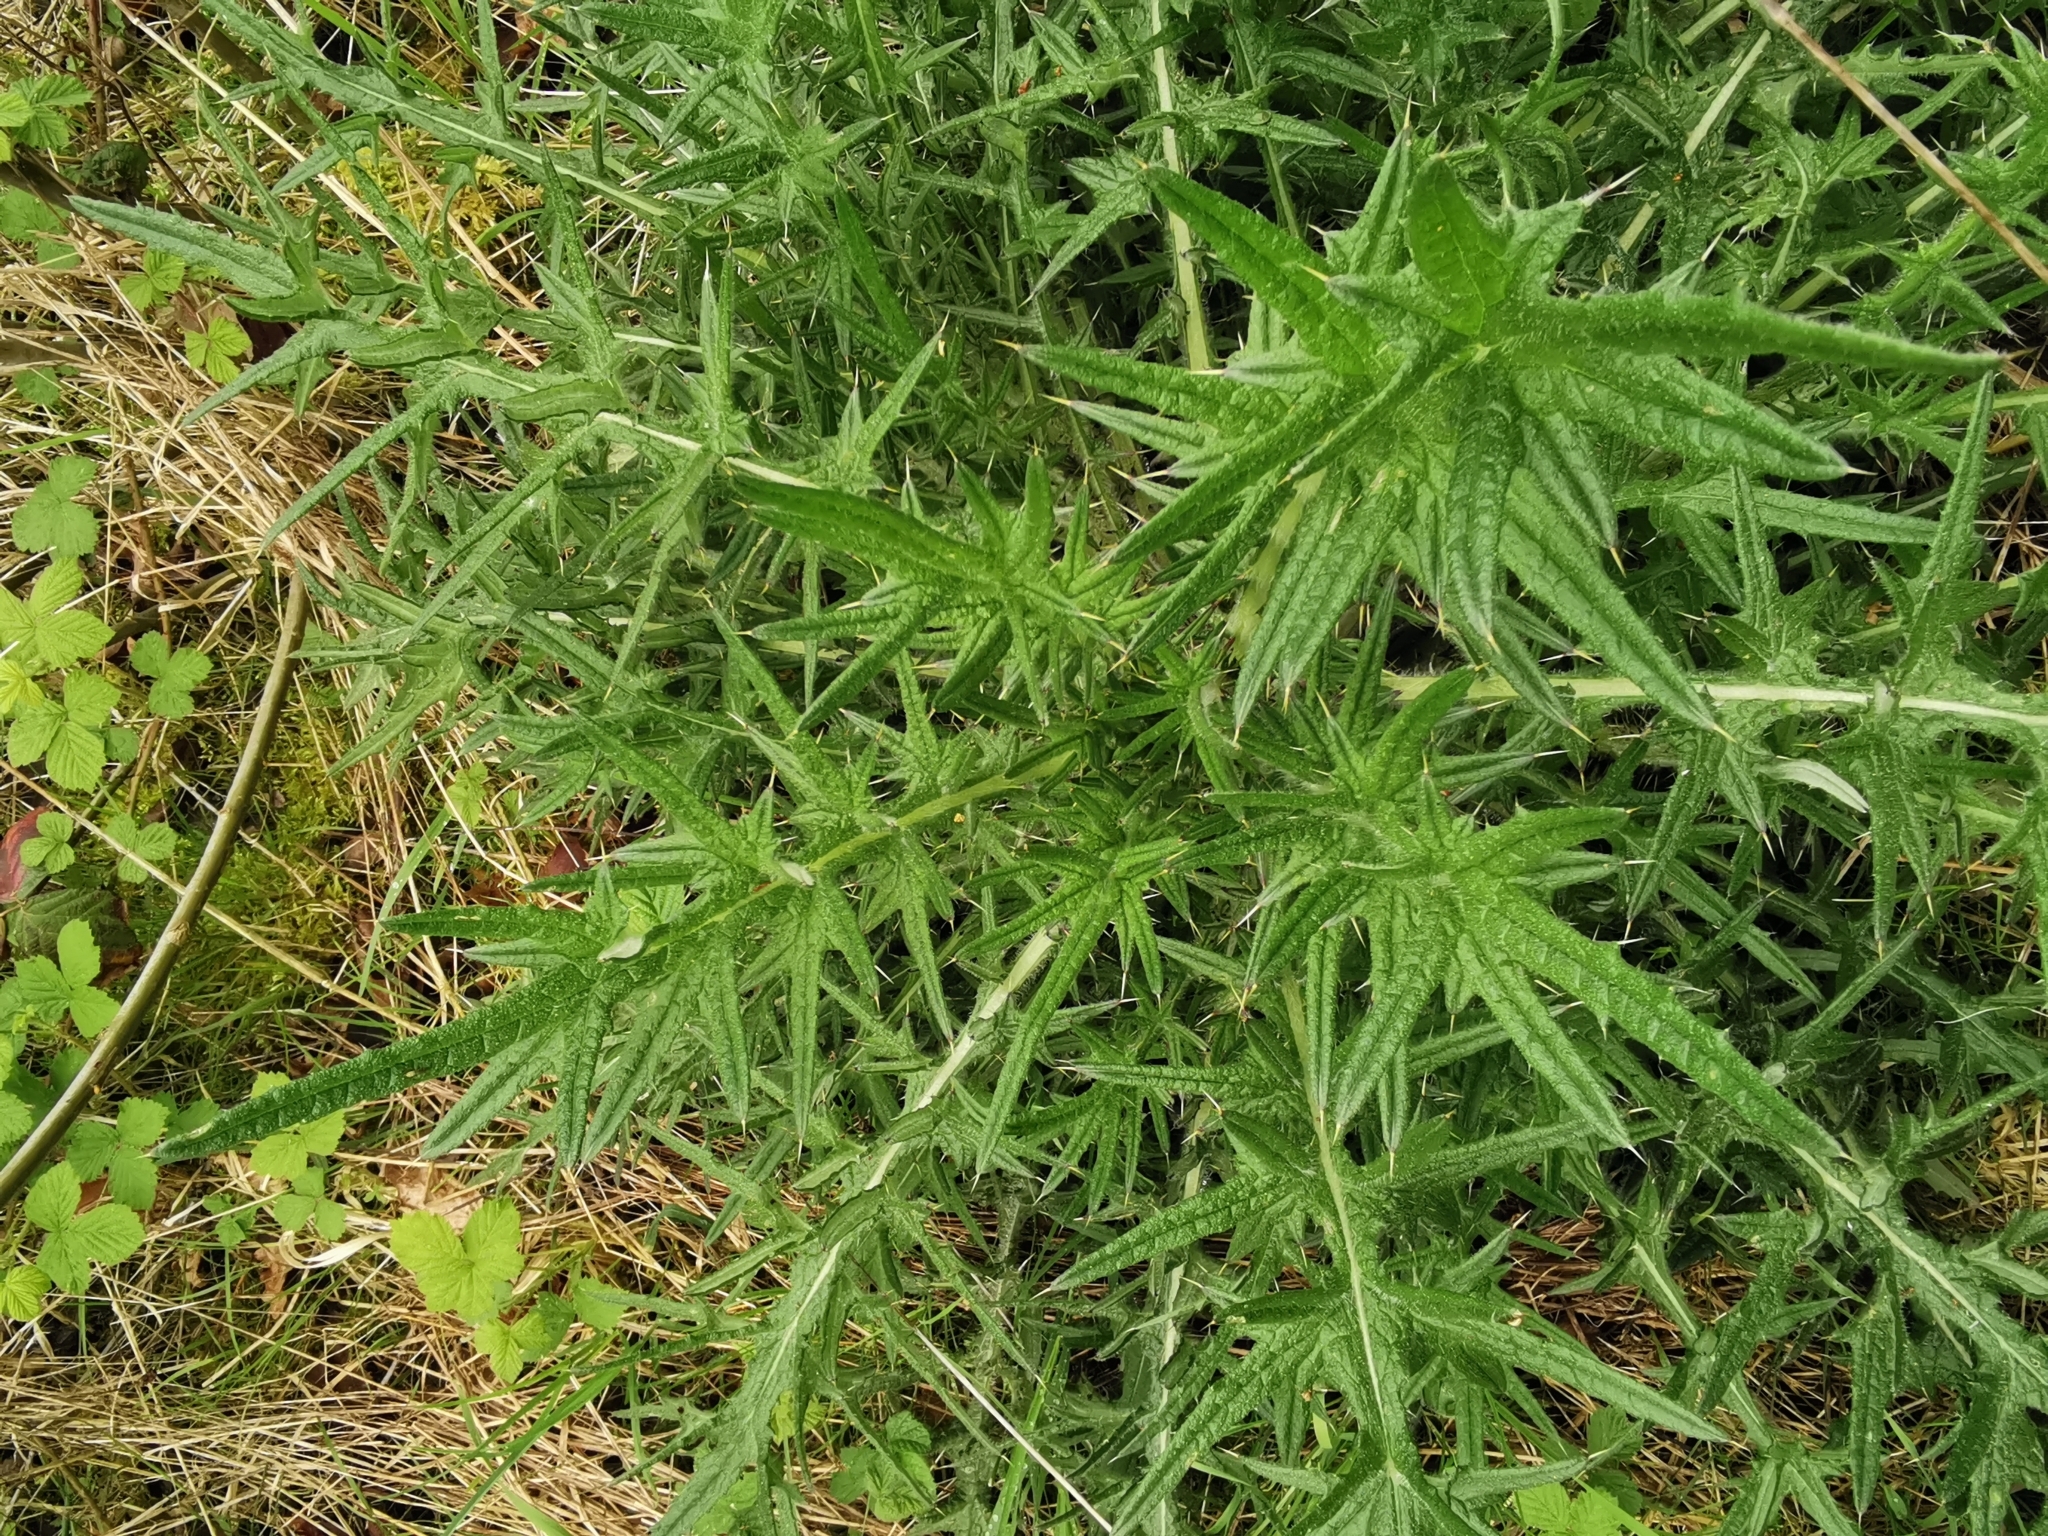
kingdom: Plantae
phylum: Tracheophyta
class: Magnoliopsida
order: Asterales
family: Asteraceae
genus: Cirsium
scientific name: Cirsium vulgare
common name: Bull thistle
